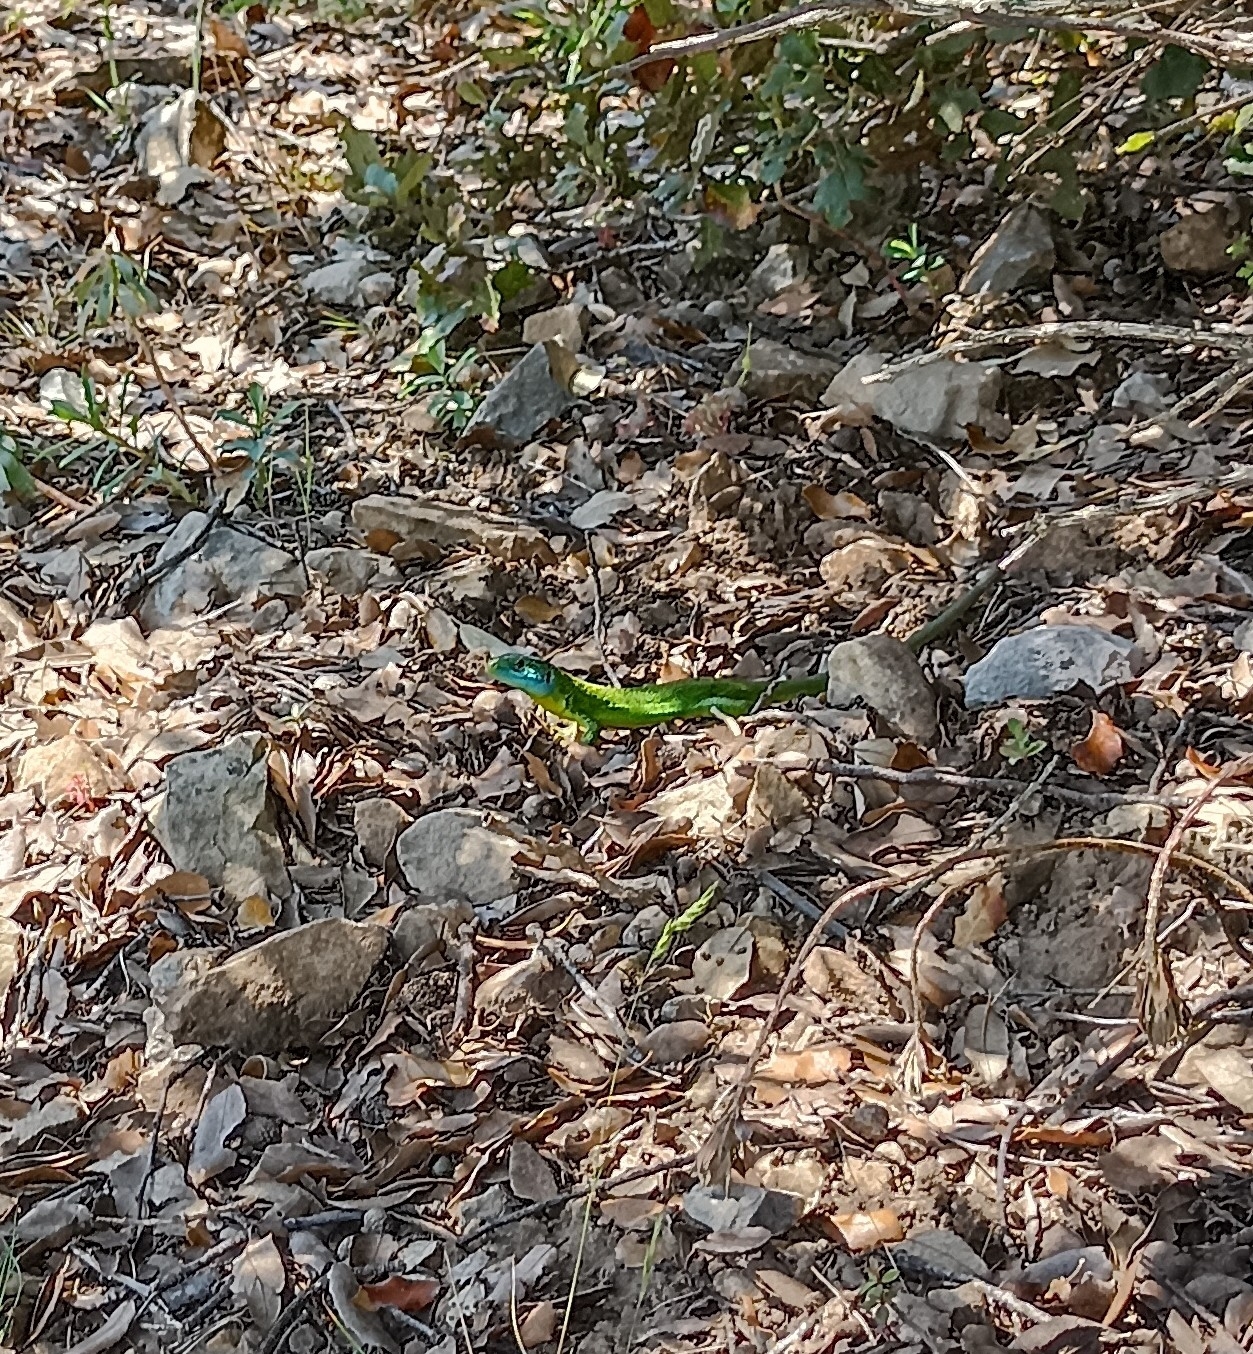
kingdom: Animalia
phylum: Chordata
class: Squamata
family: Lacertidae
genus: Lacerta
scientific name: Lacerta bilineata
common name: Western green lizard
